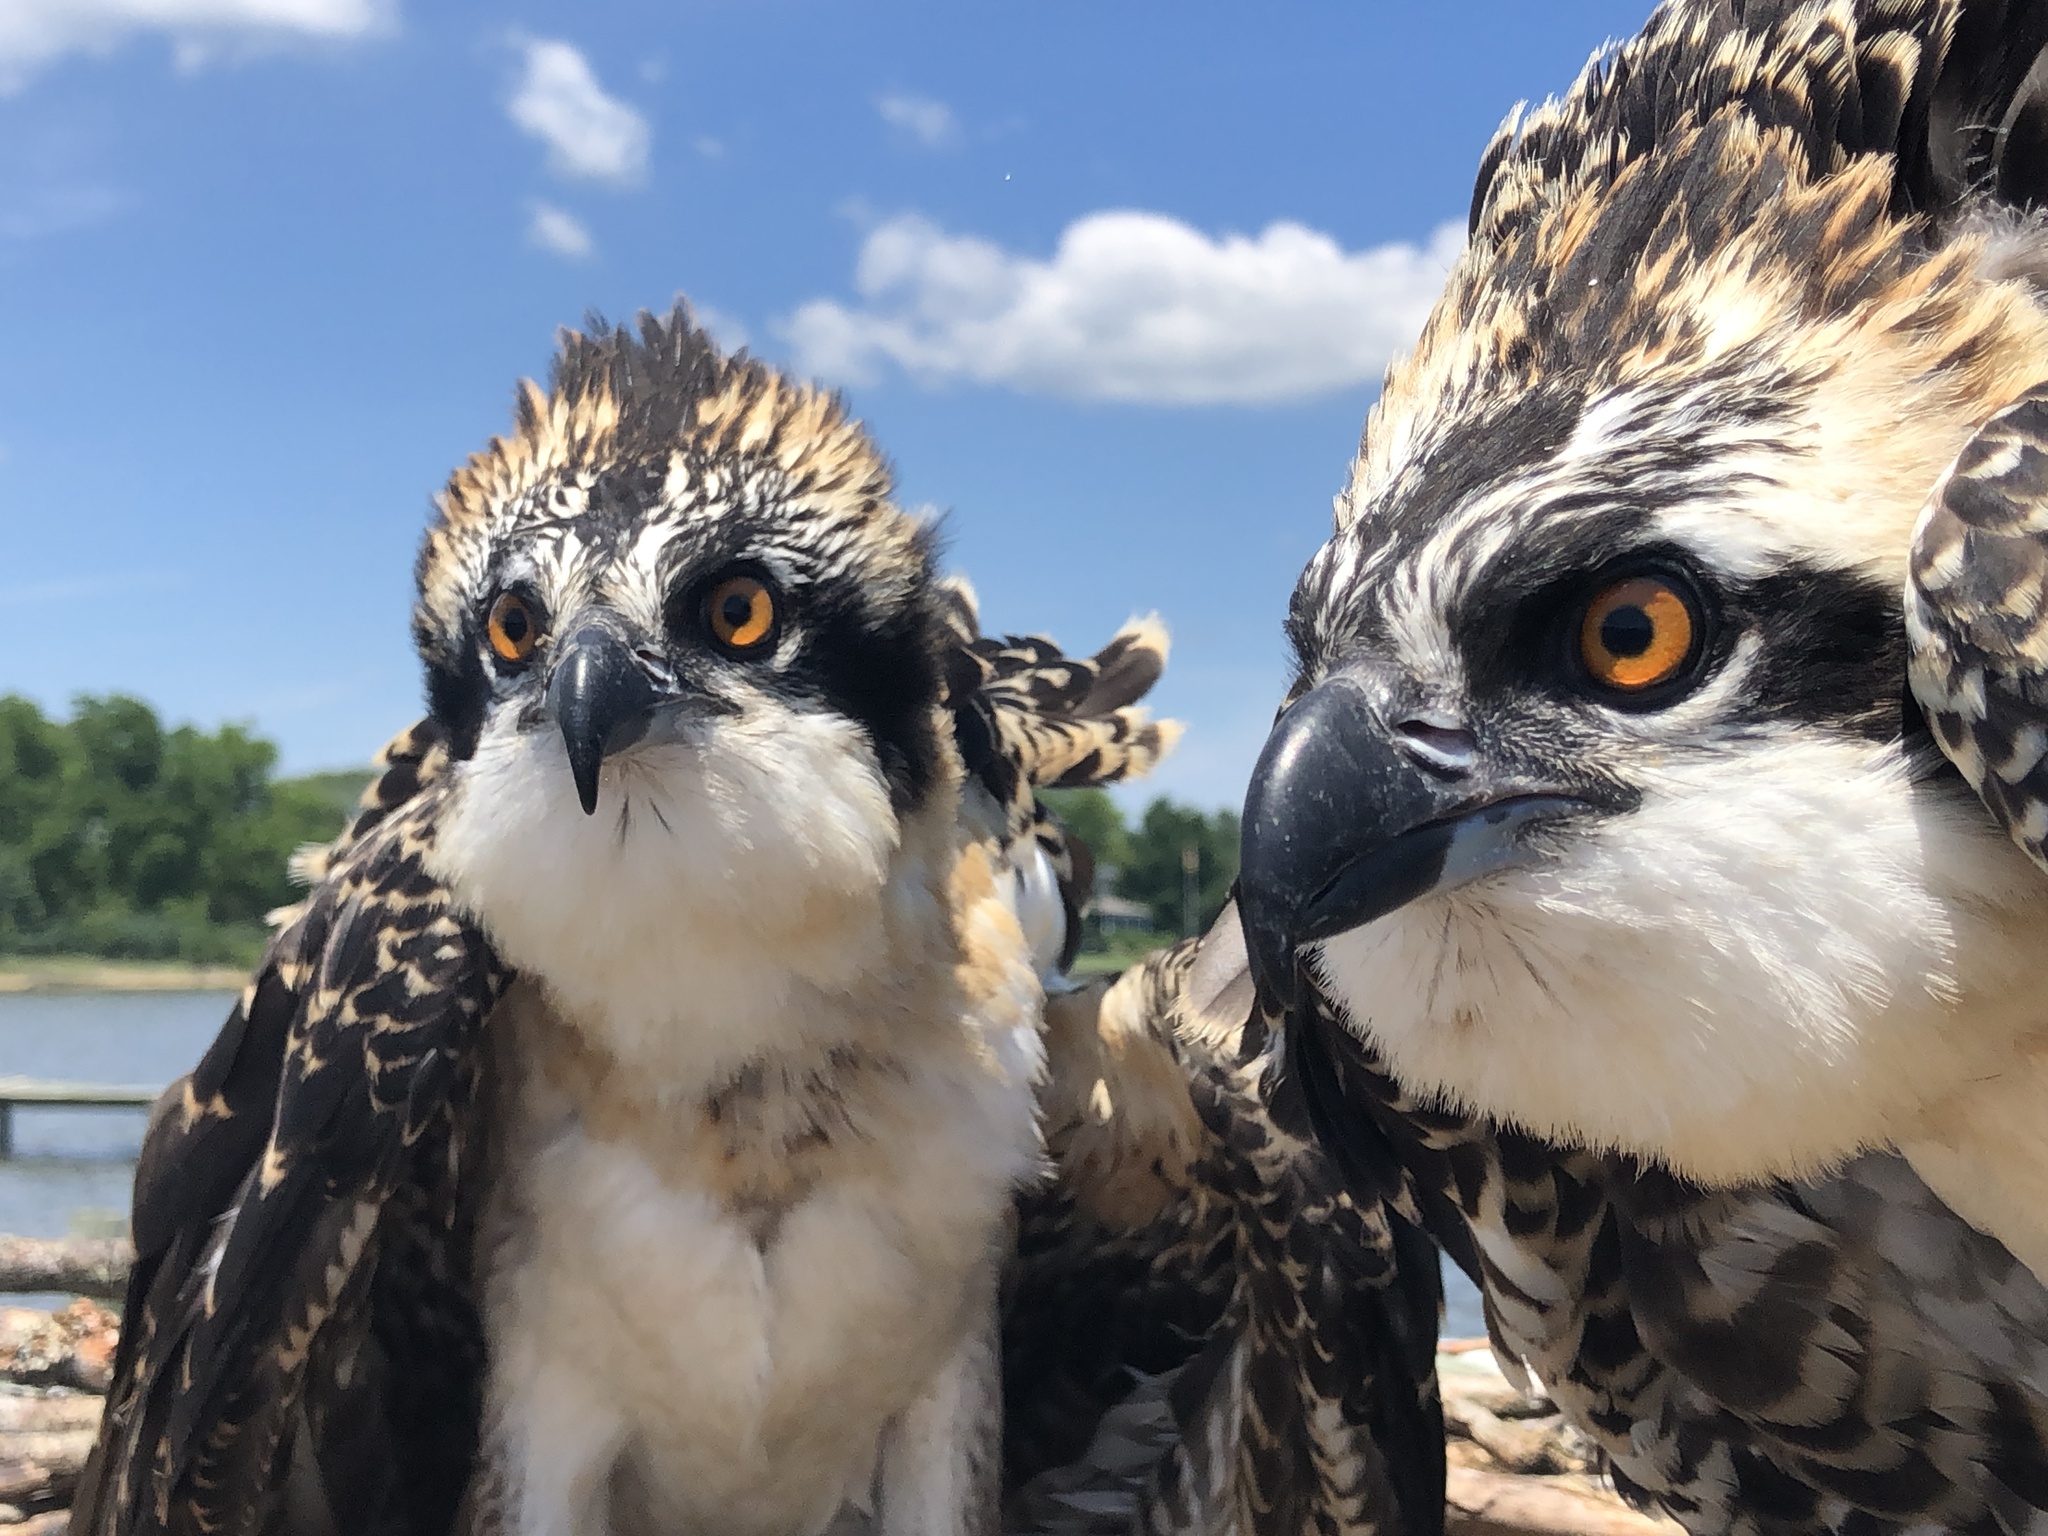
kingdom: Animalia
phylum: Chordata
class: Aves
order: Accipitriformes
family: Pandionidae
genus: Pandion
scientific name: Pandion haliaetus
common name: Osprey
